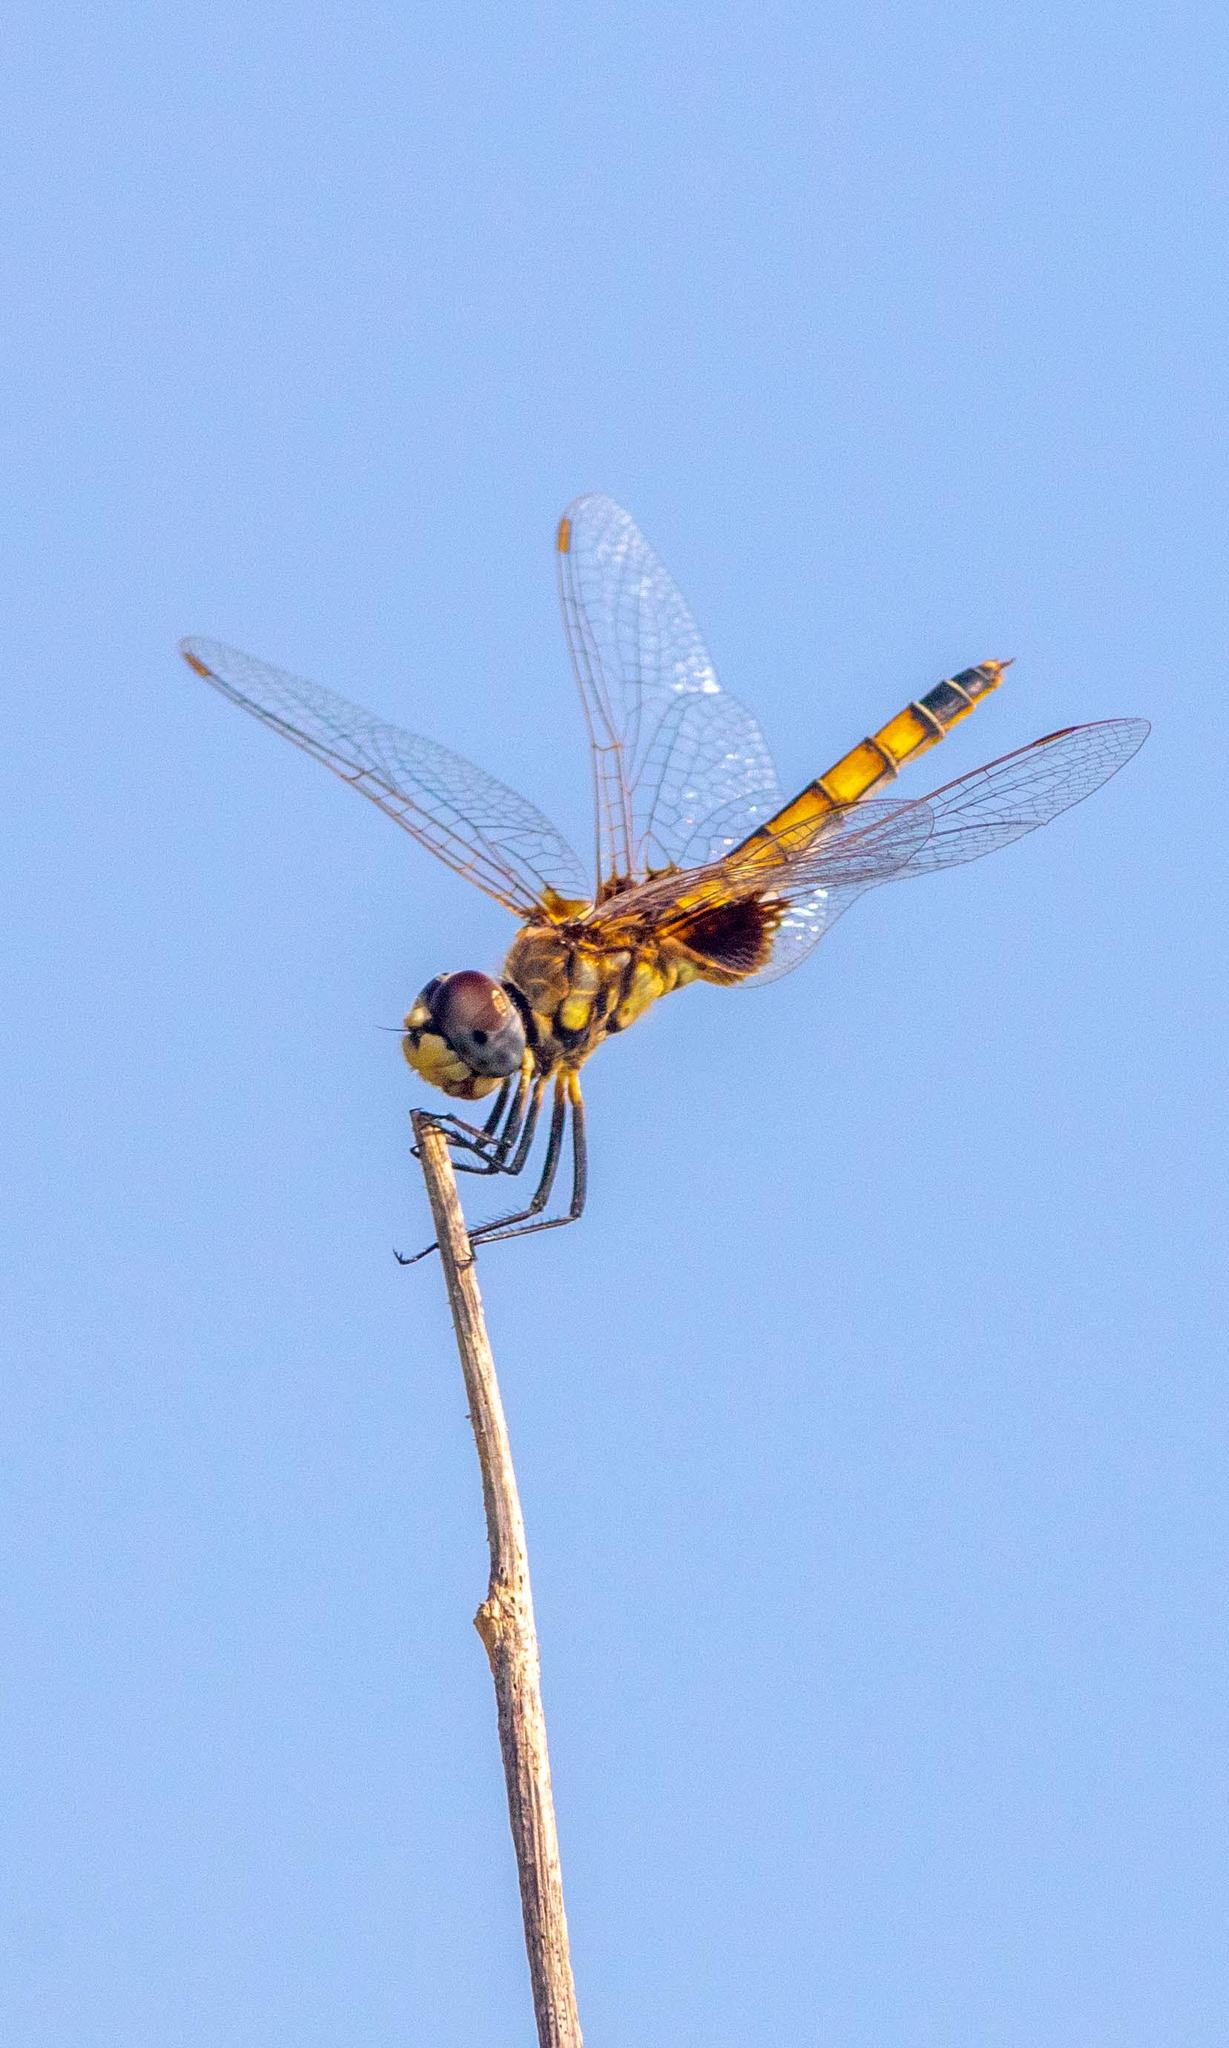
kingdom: Animalia
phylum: Arthropoda
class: Insecta
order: Odonata
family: Libellulidae
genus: Macrodiplax
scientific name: Macrodiplax balteata
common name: Marl pennant
